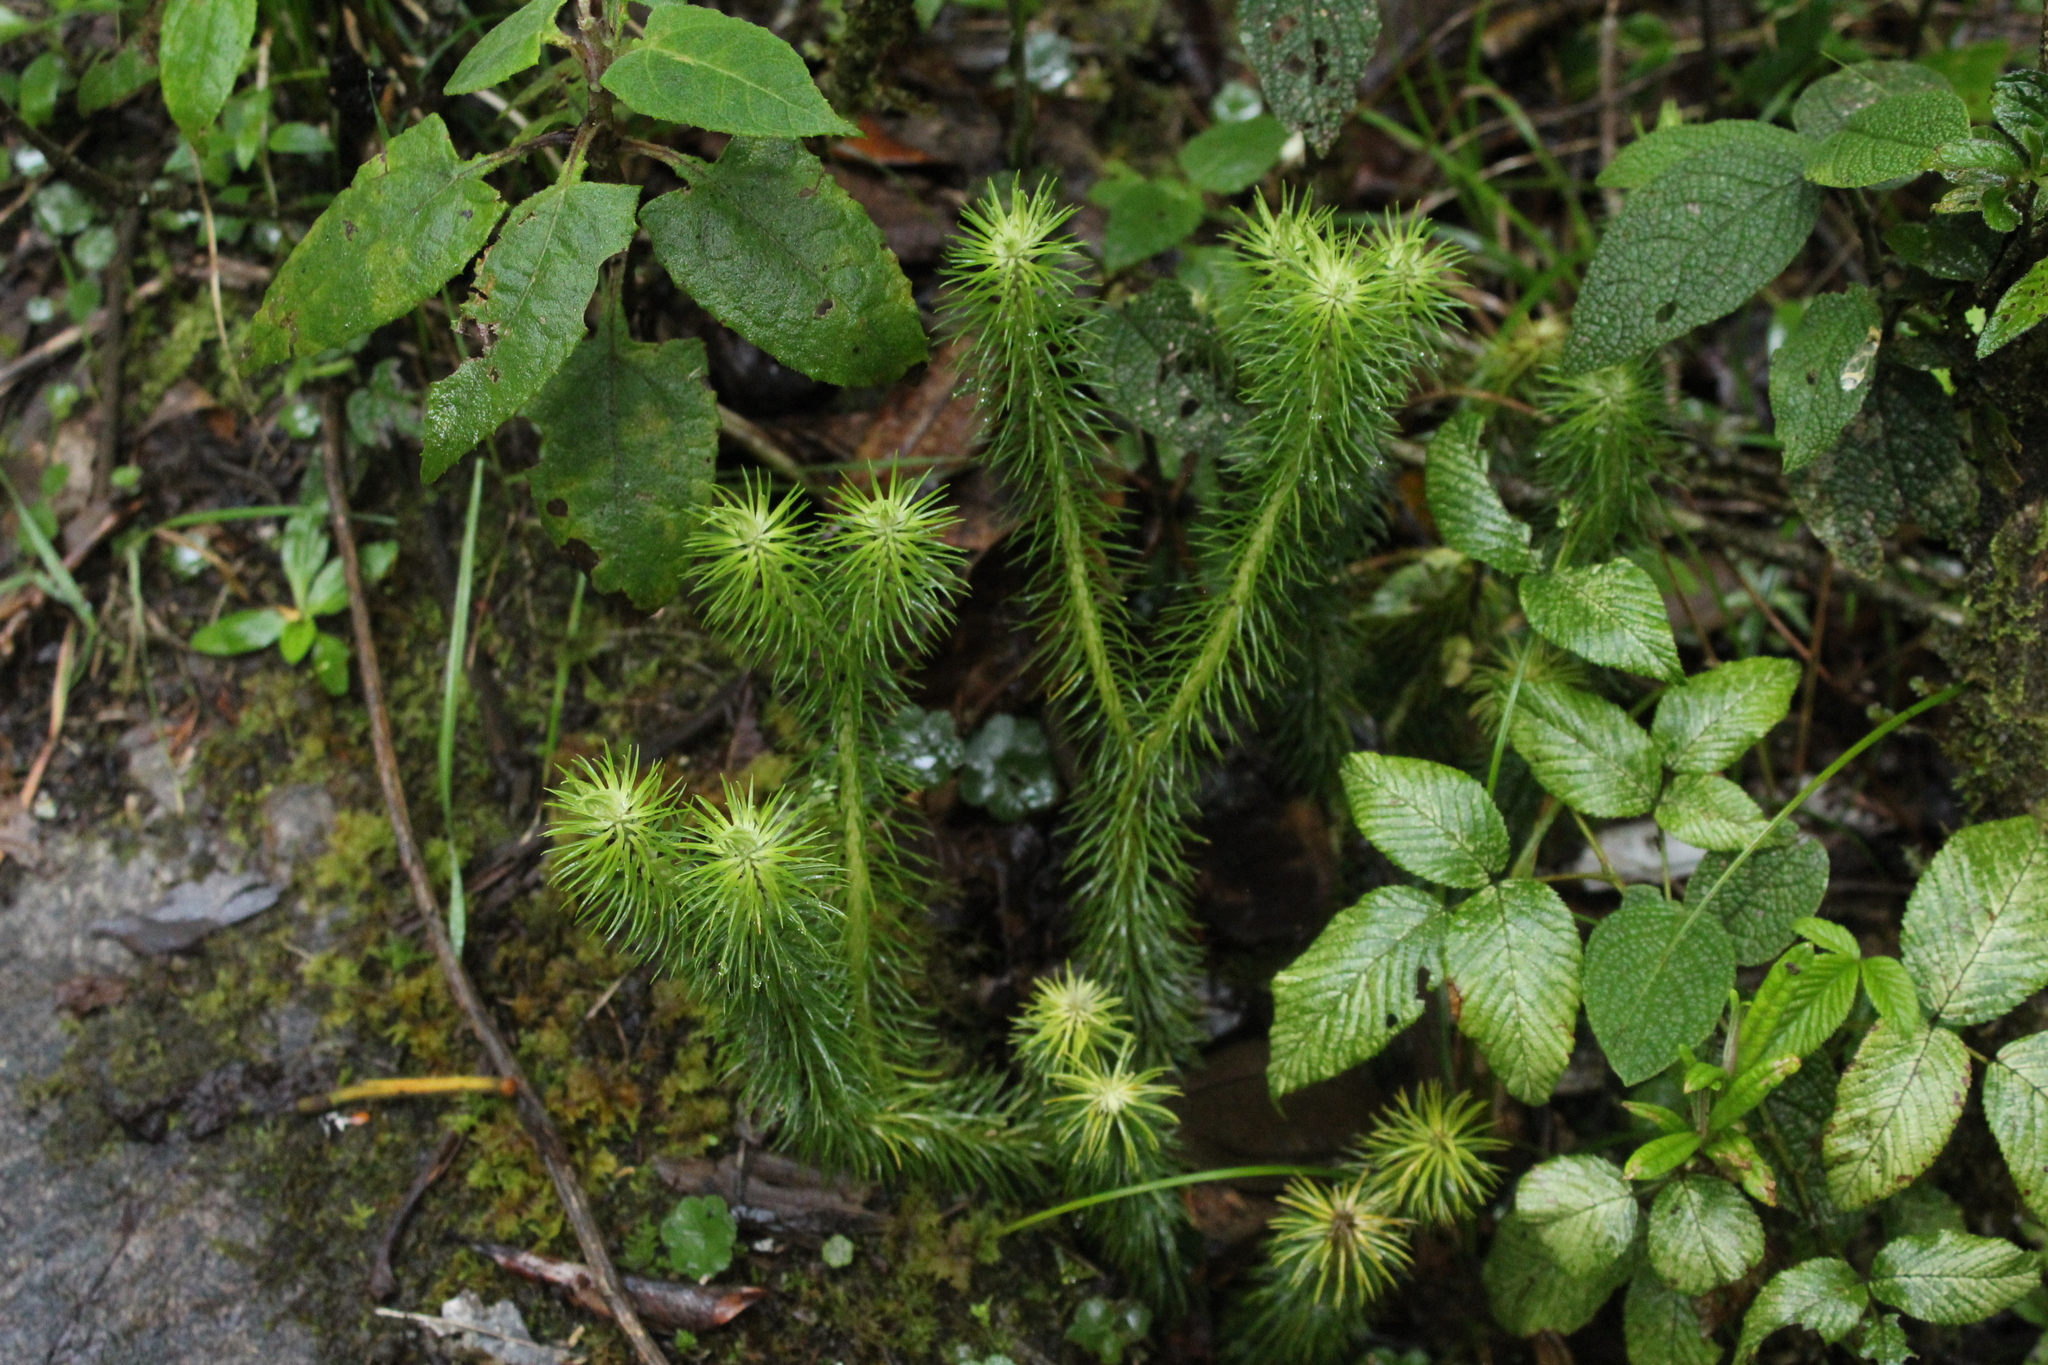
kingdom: Plantae
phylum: Tracheophyta
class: Lycopodiopsida
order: Lycopodiales
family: Lycopodiaceae
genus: Phlegmariurus
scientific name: Phlegmariurus hippurideus
